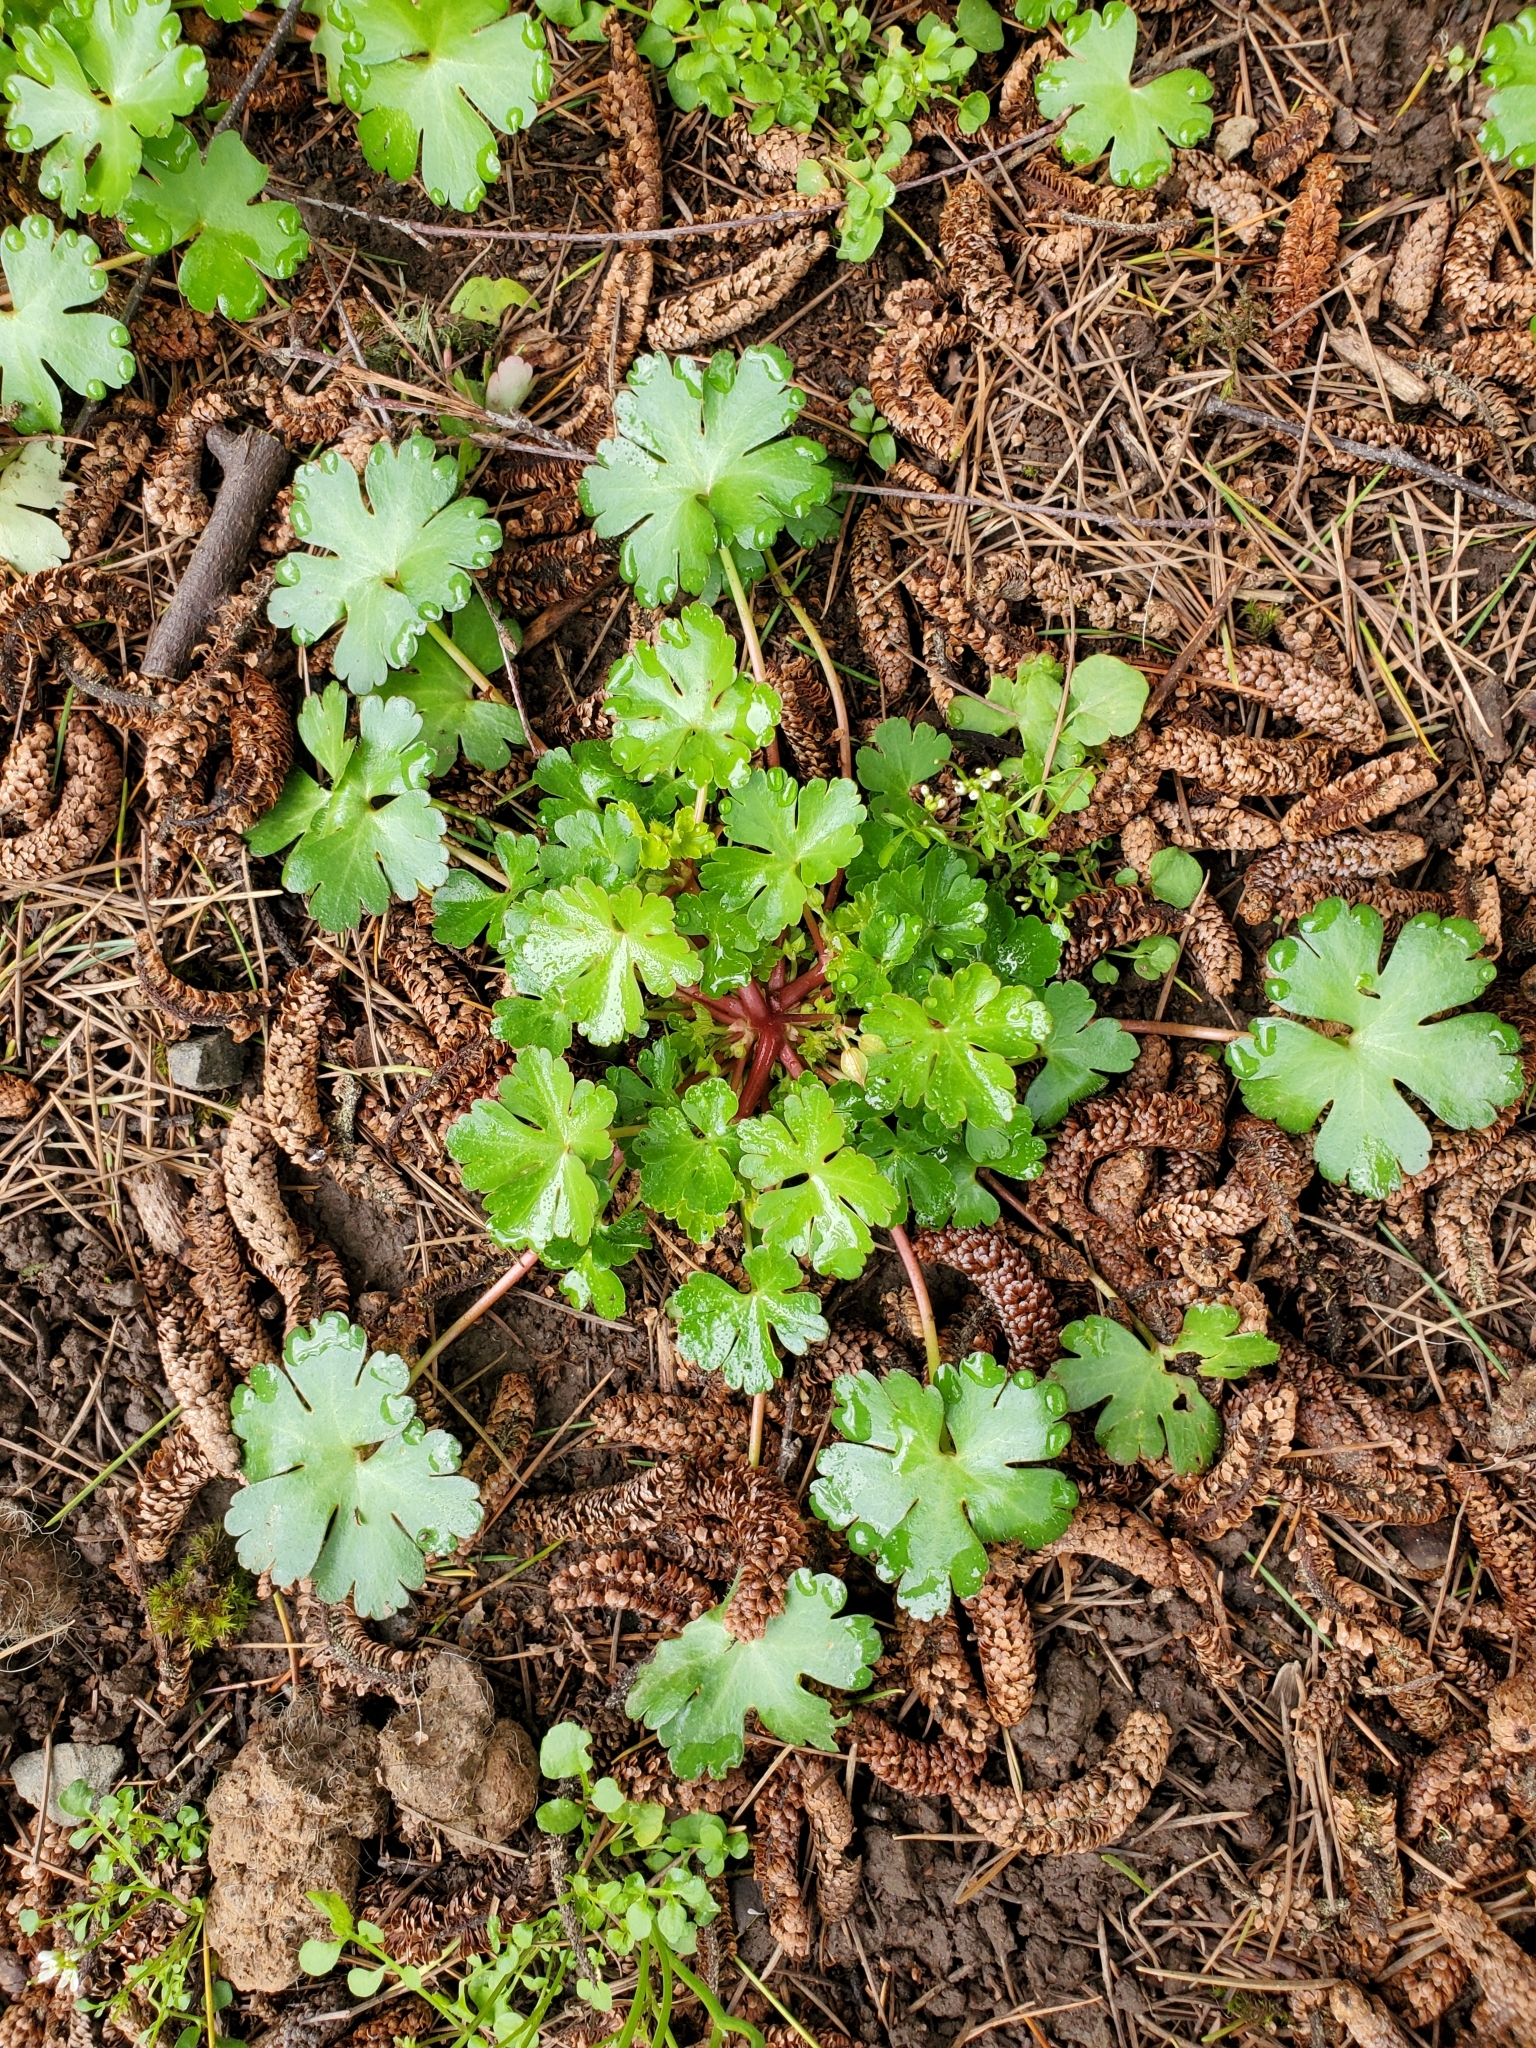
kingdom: Plantae
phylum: Tracheophyta
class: Magnoliopsida
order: Geraniales
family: Geraniaceae
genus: Geranium
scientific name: Geranium lucidum
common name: Shining crane's-bill
